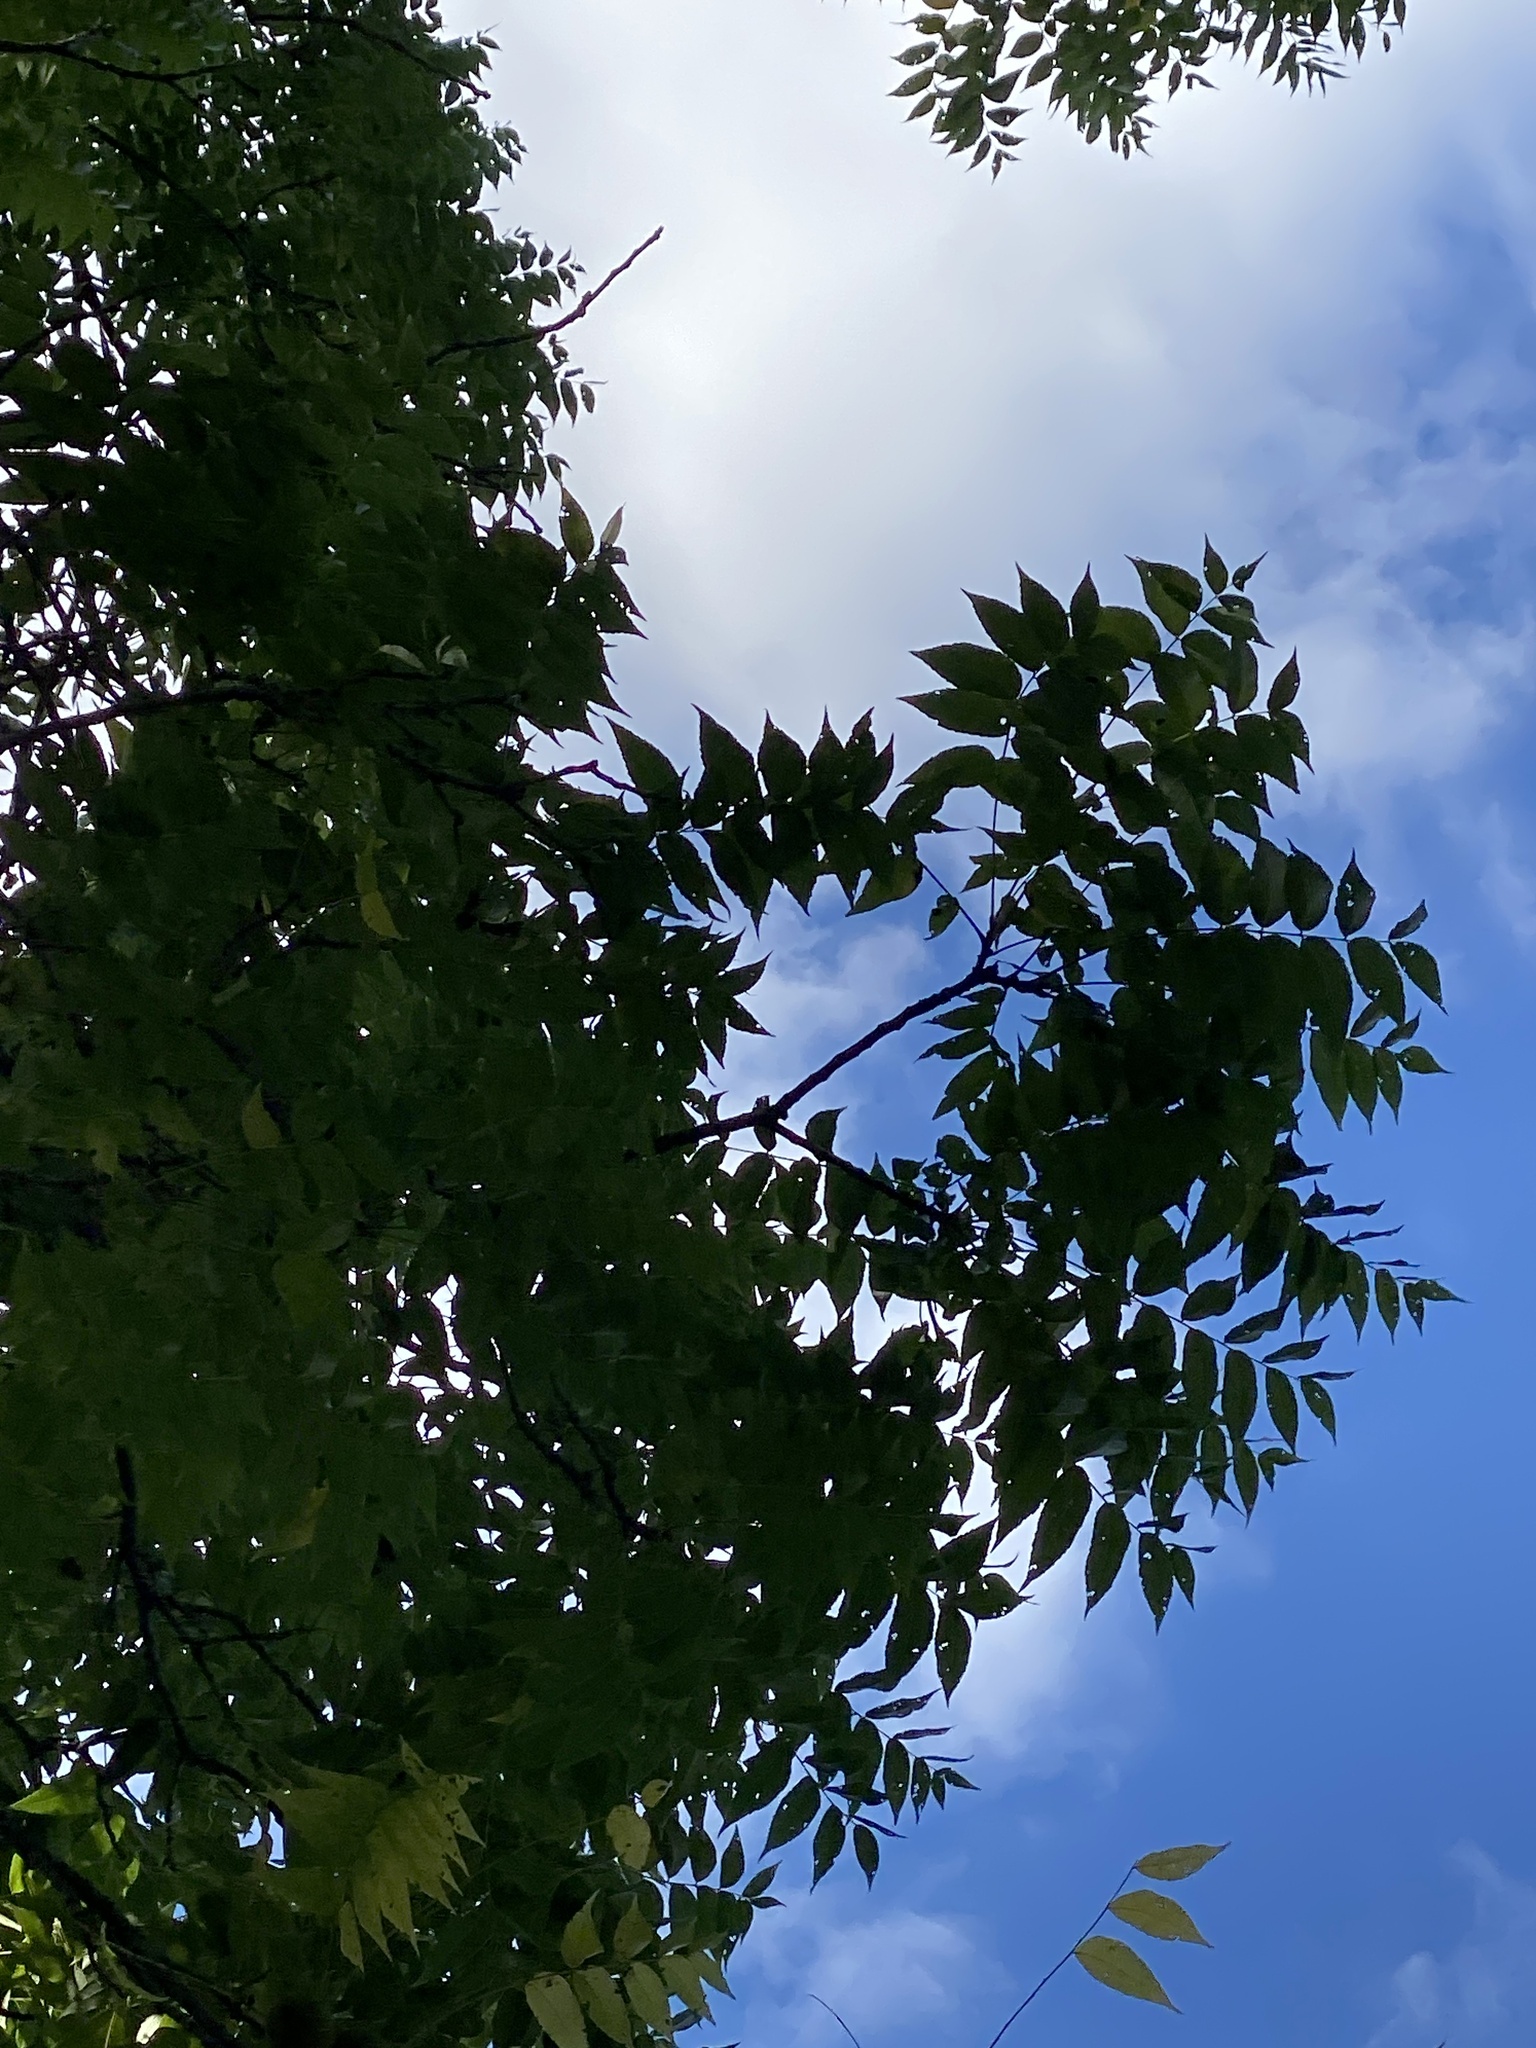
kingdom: Plantae
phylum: Tracheophyta
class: Magnoliopsida
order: Fagales
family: Juglandaceae
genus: Juglans
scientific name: Juglans nigra
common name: Black walnut
